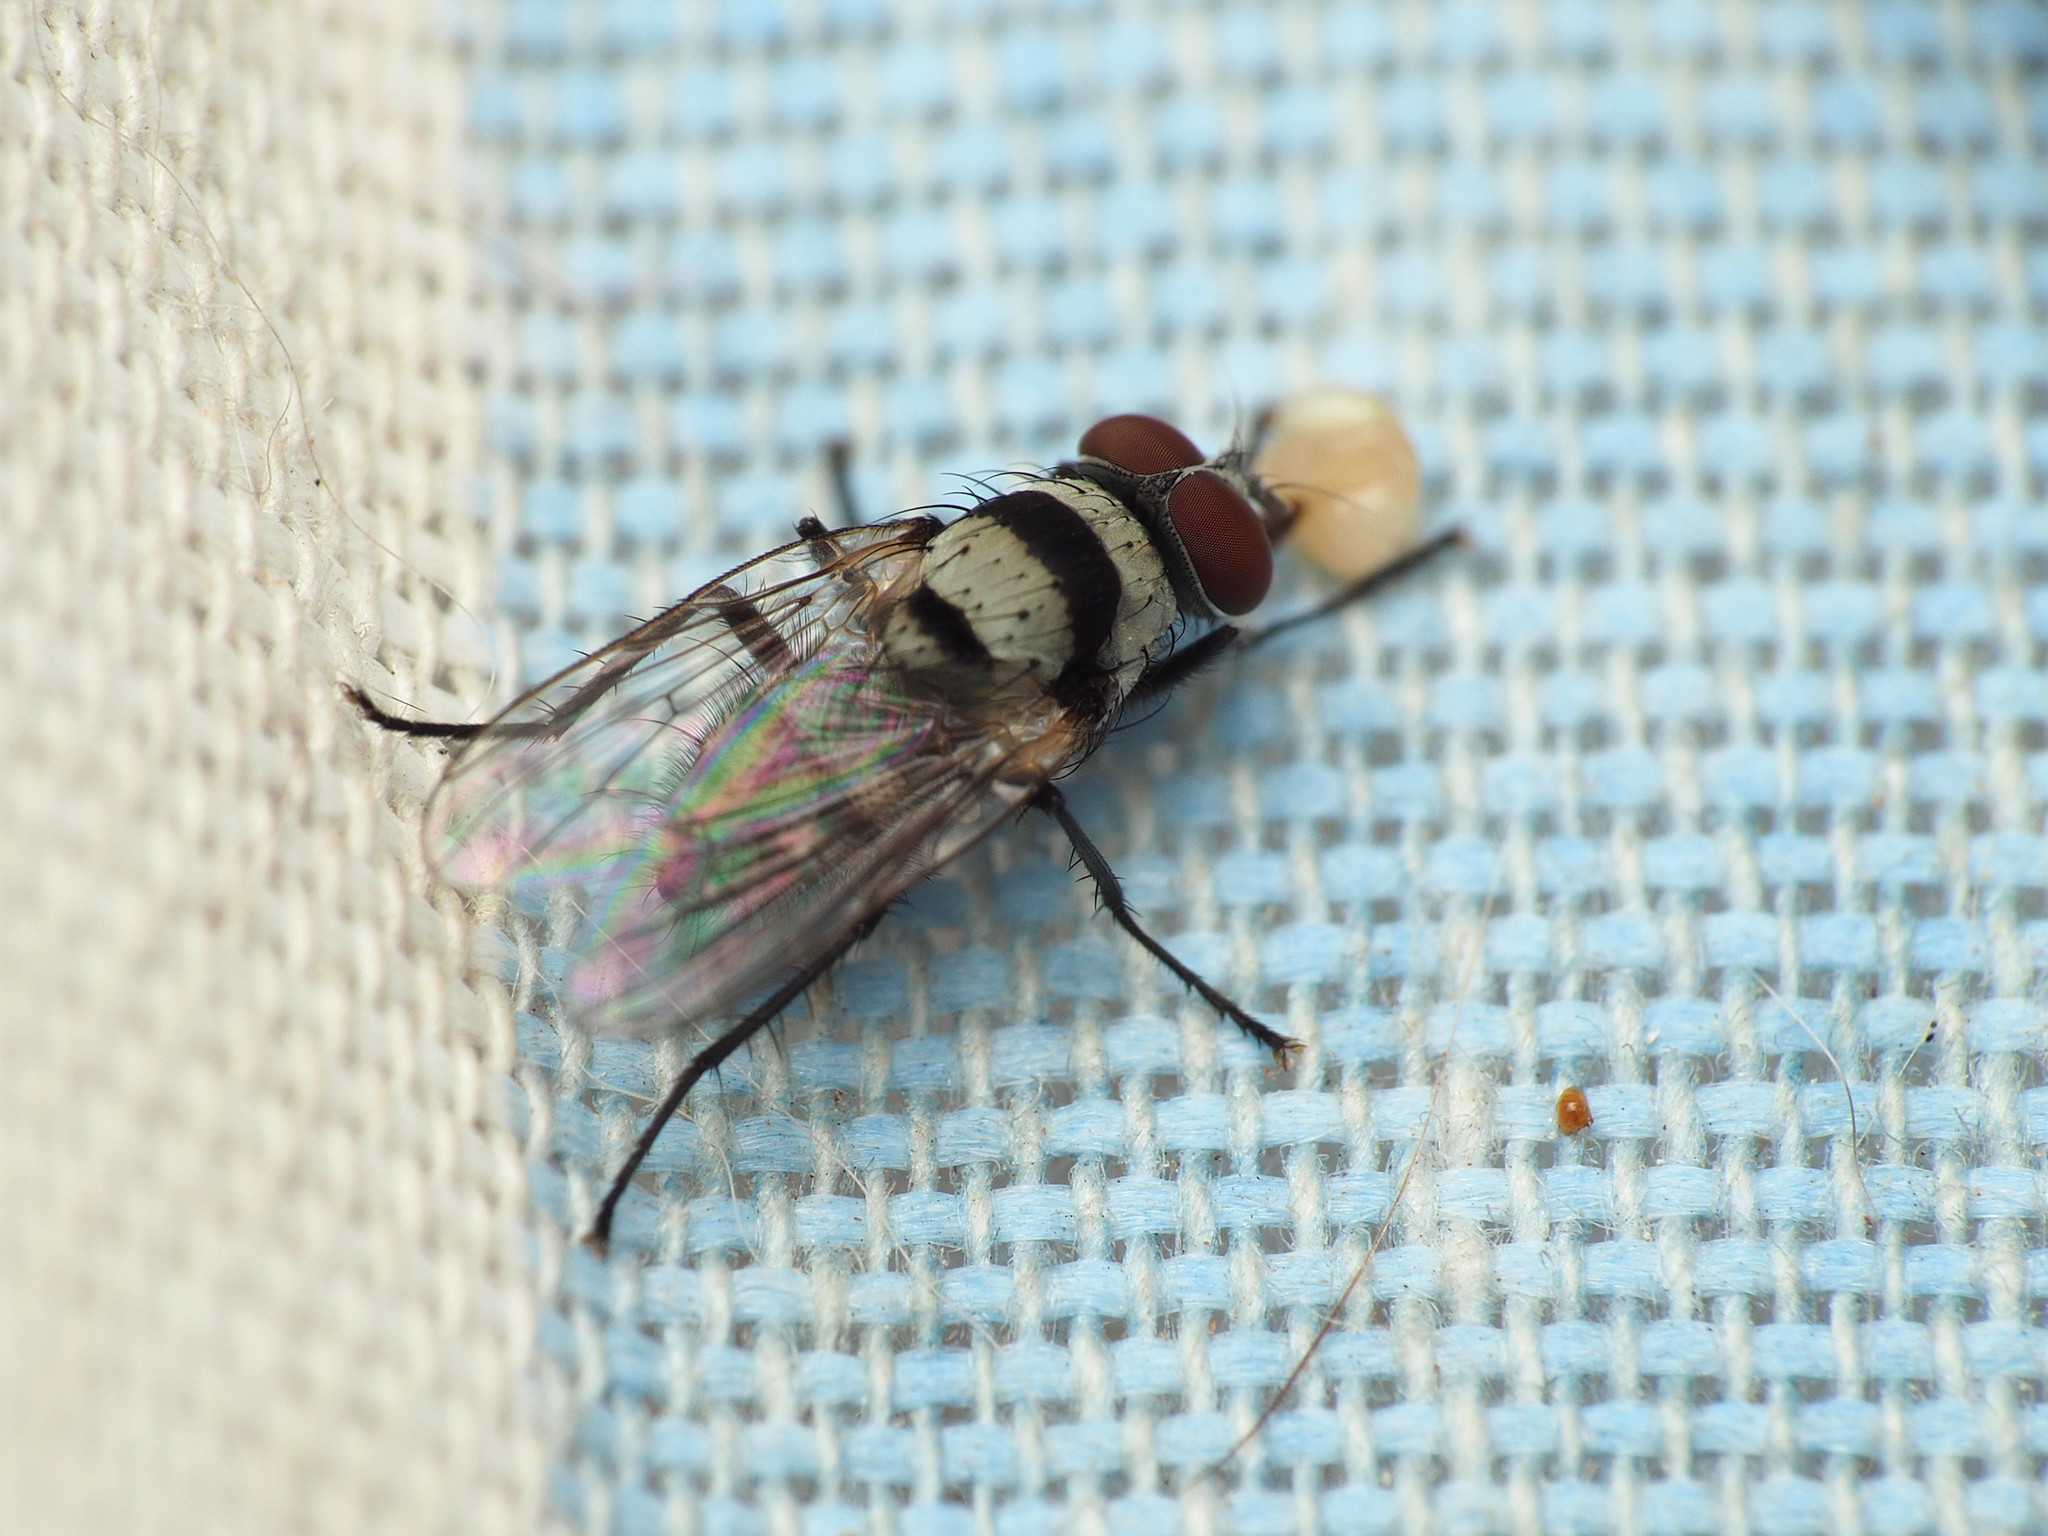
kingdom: Animalia
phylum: Arthropoda
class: Insecta
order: Diptera
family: Anthomyiidae
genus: Anthomyia
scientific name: Anthomyia illocata
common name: Fly
